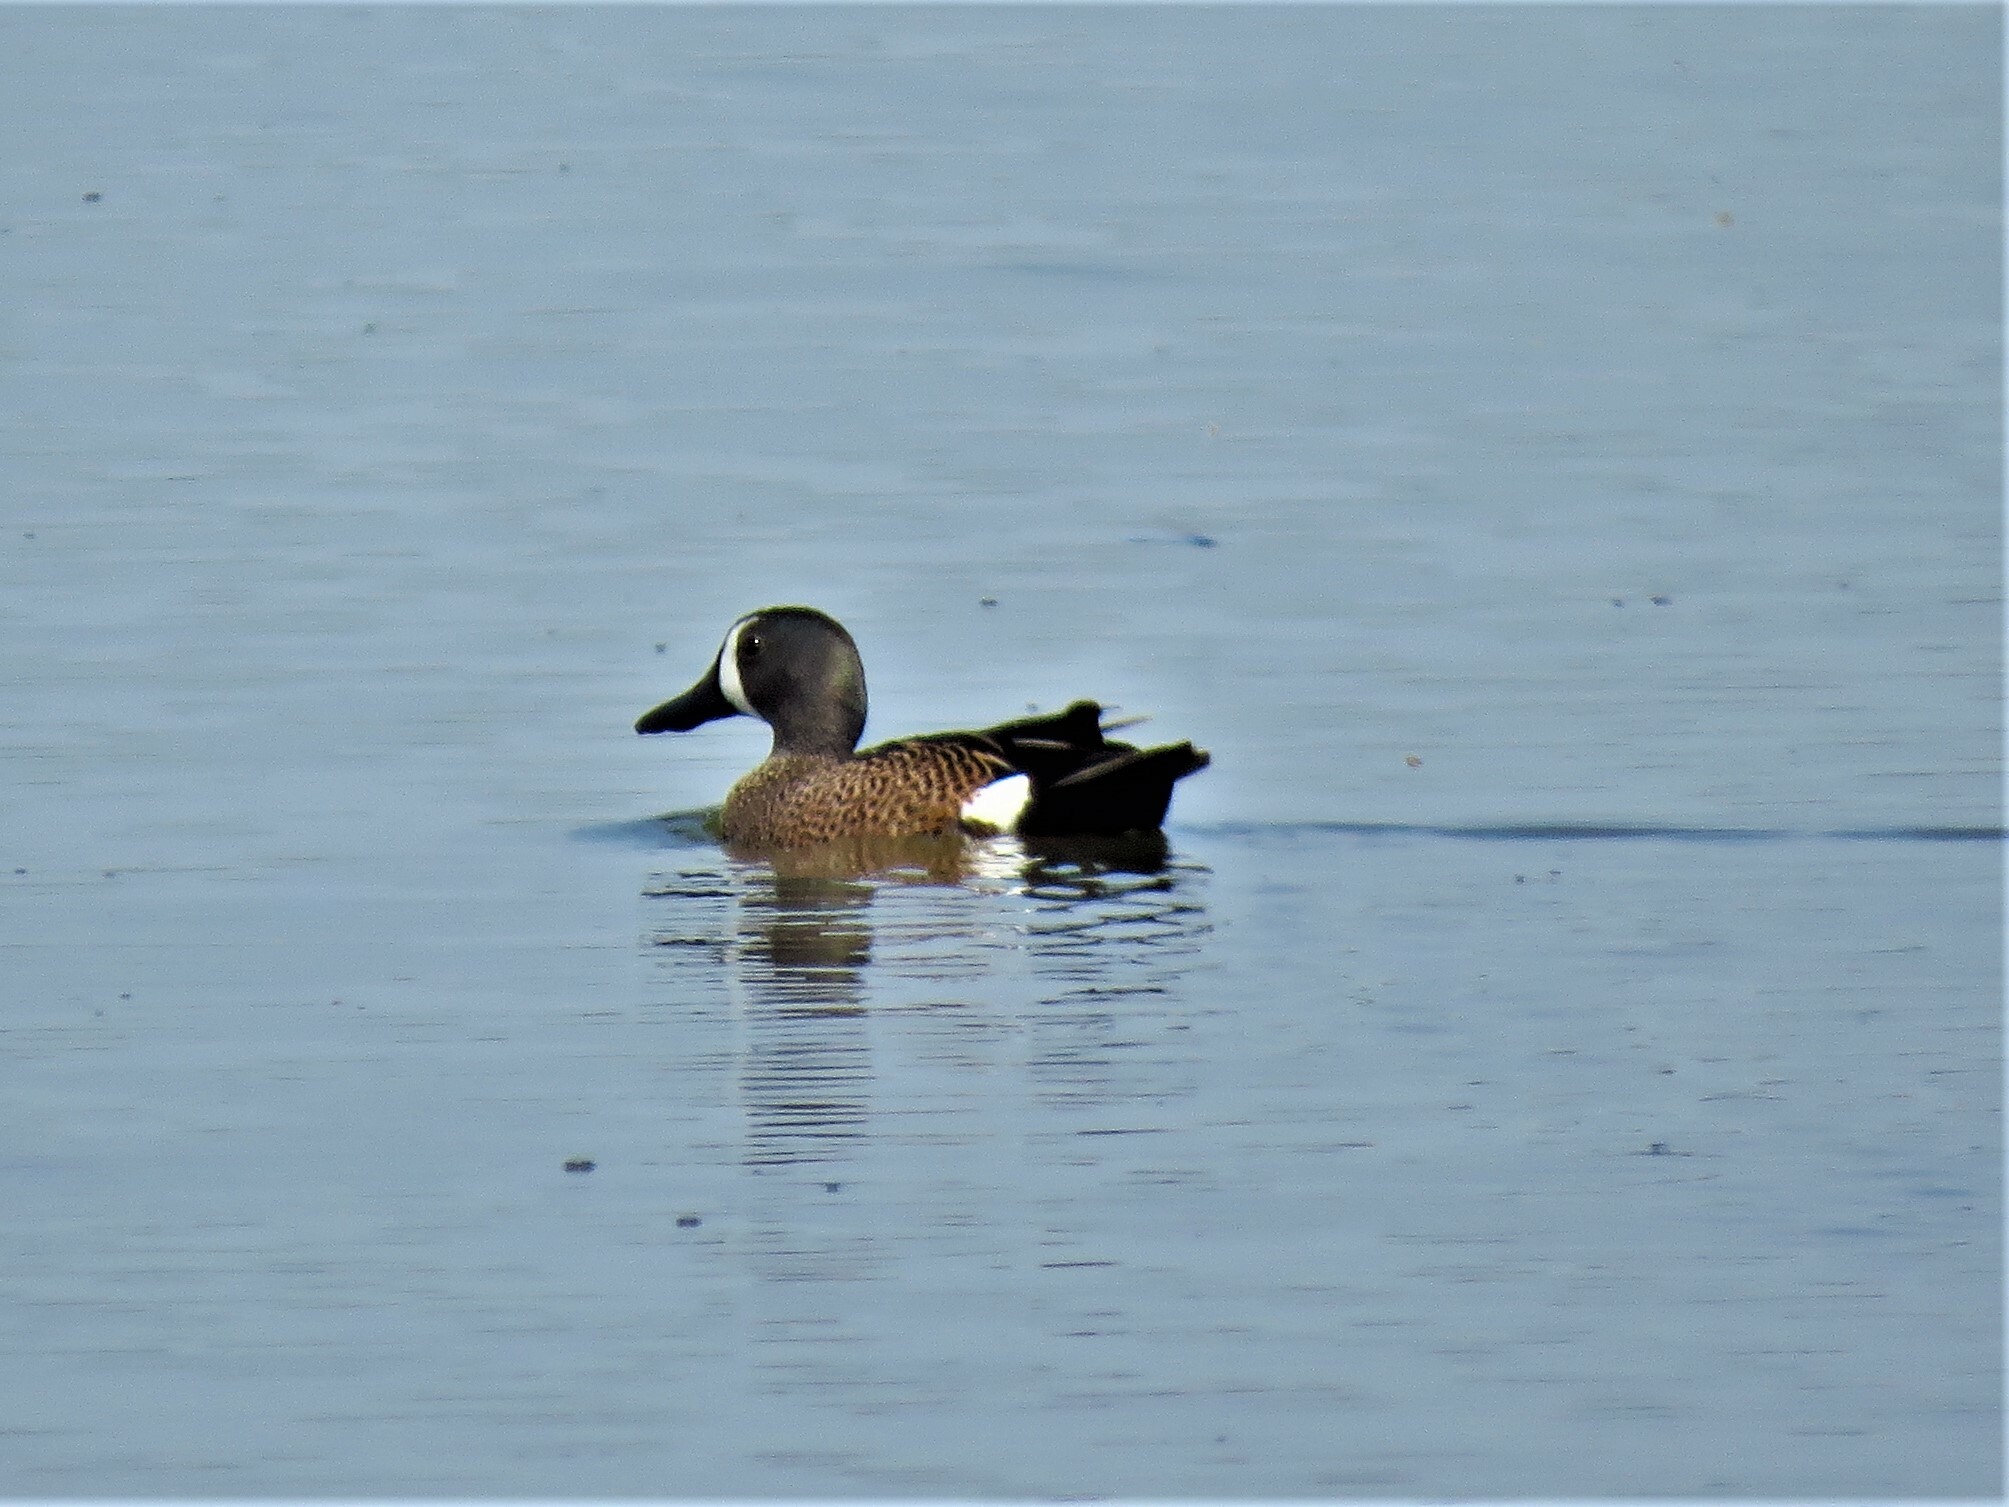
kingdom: Animalia
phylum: Chordata
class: Aves
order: Anseriformes
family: Anatidae
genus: Spatula
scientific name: Spatula discors
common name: Blue-winged teal
